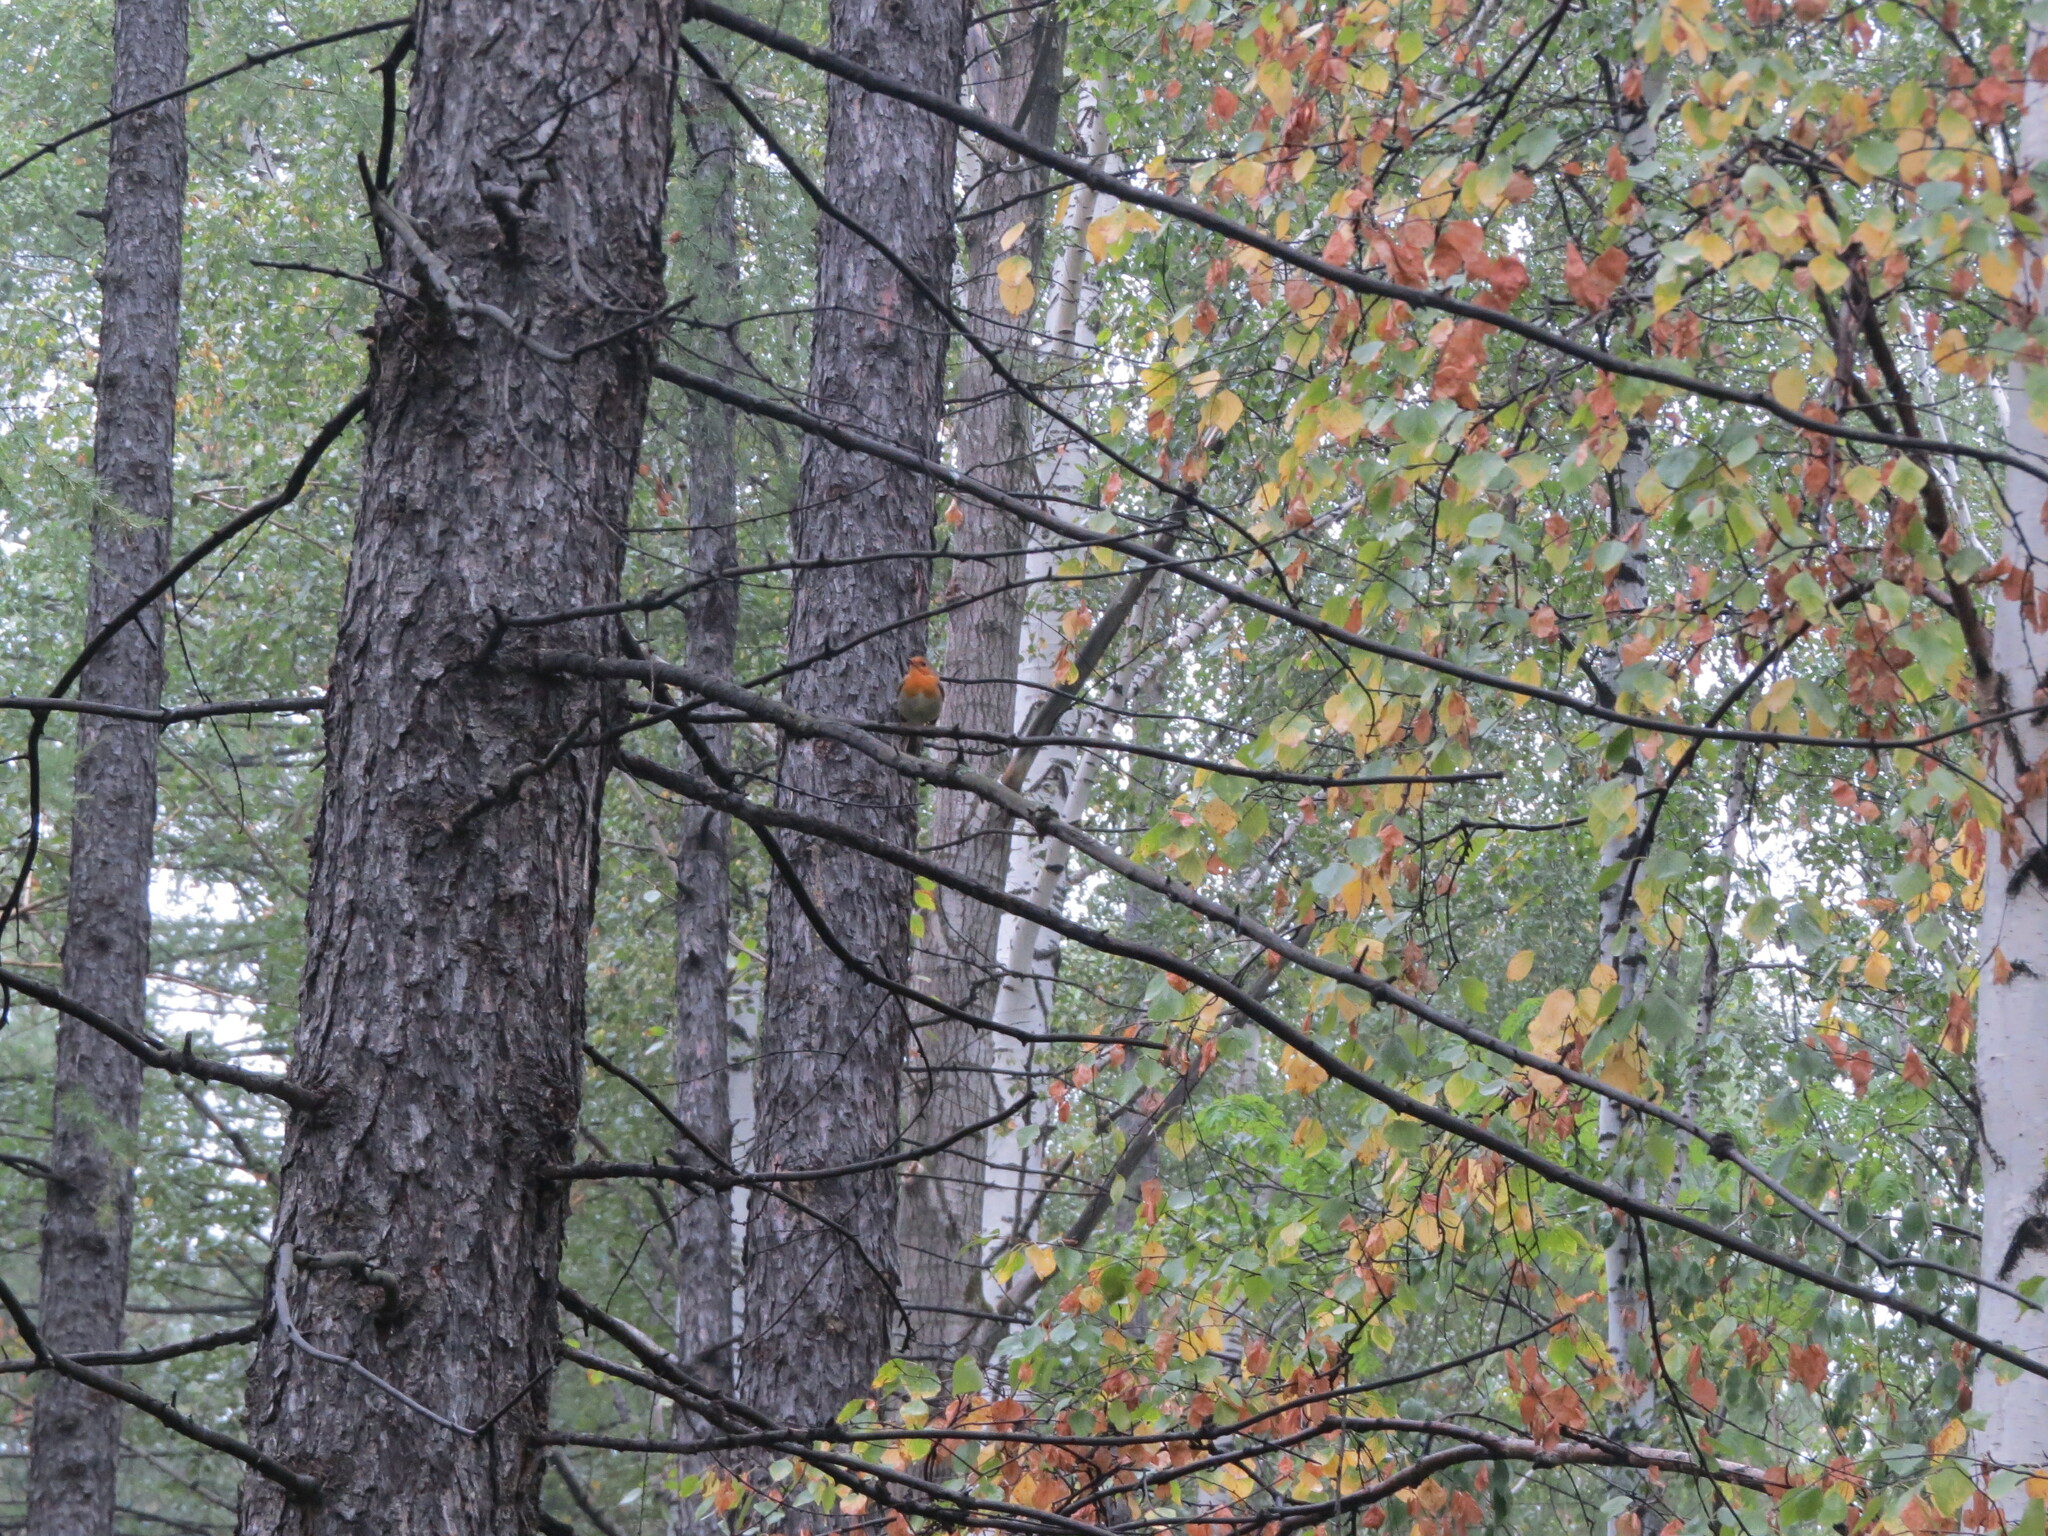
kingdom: Animalia
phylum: Chordata
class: Aves
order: Passeriformes
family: Muscicapidae
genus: Erithacus
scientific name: Erithacus rubecula
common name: European robin
